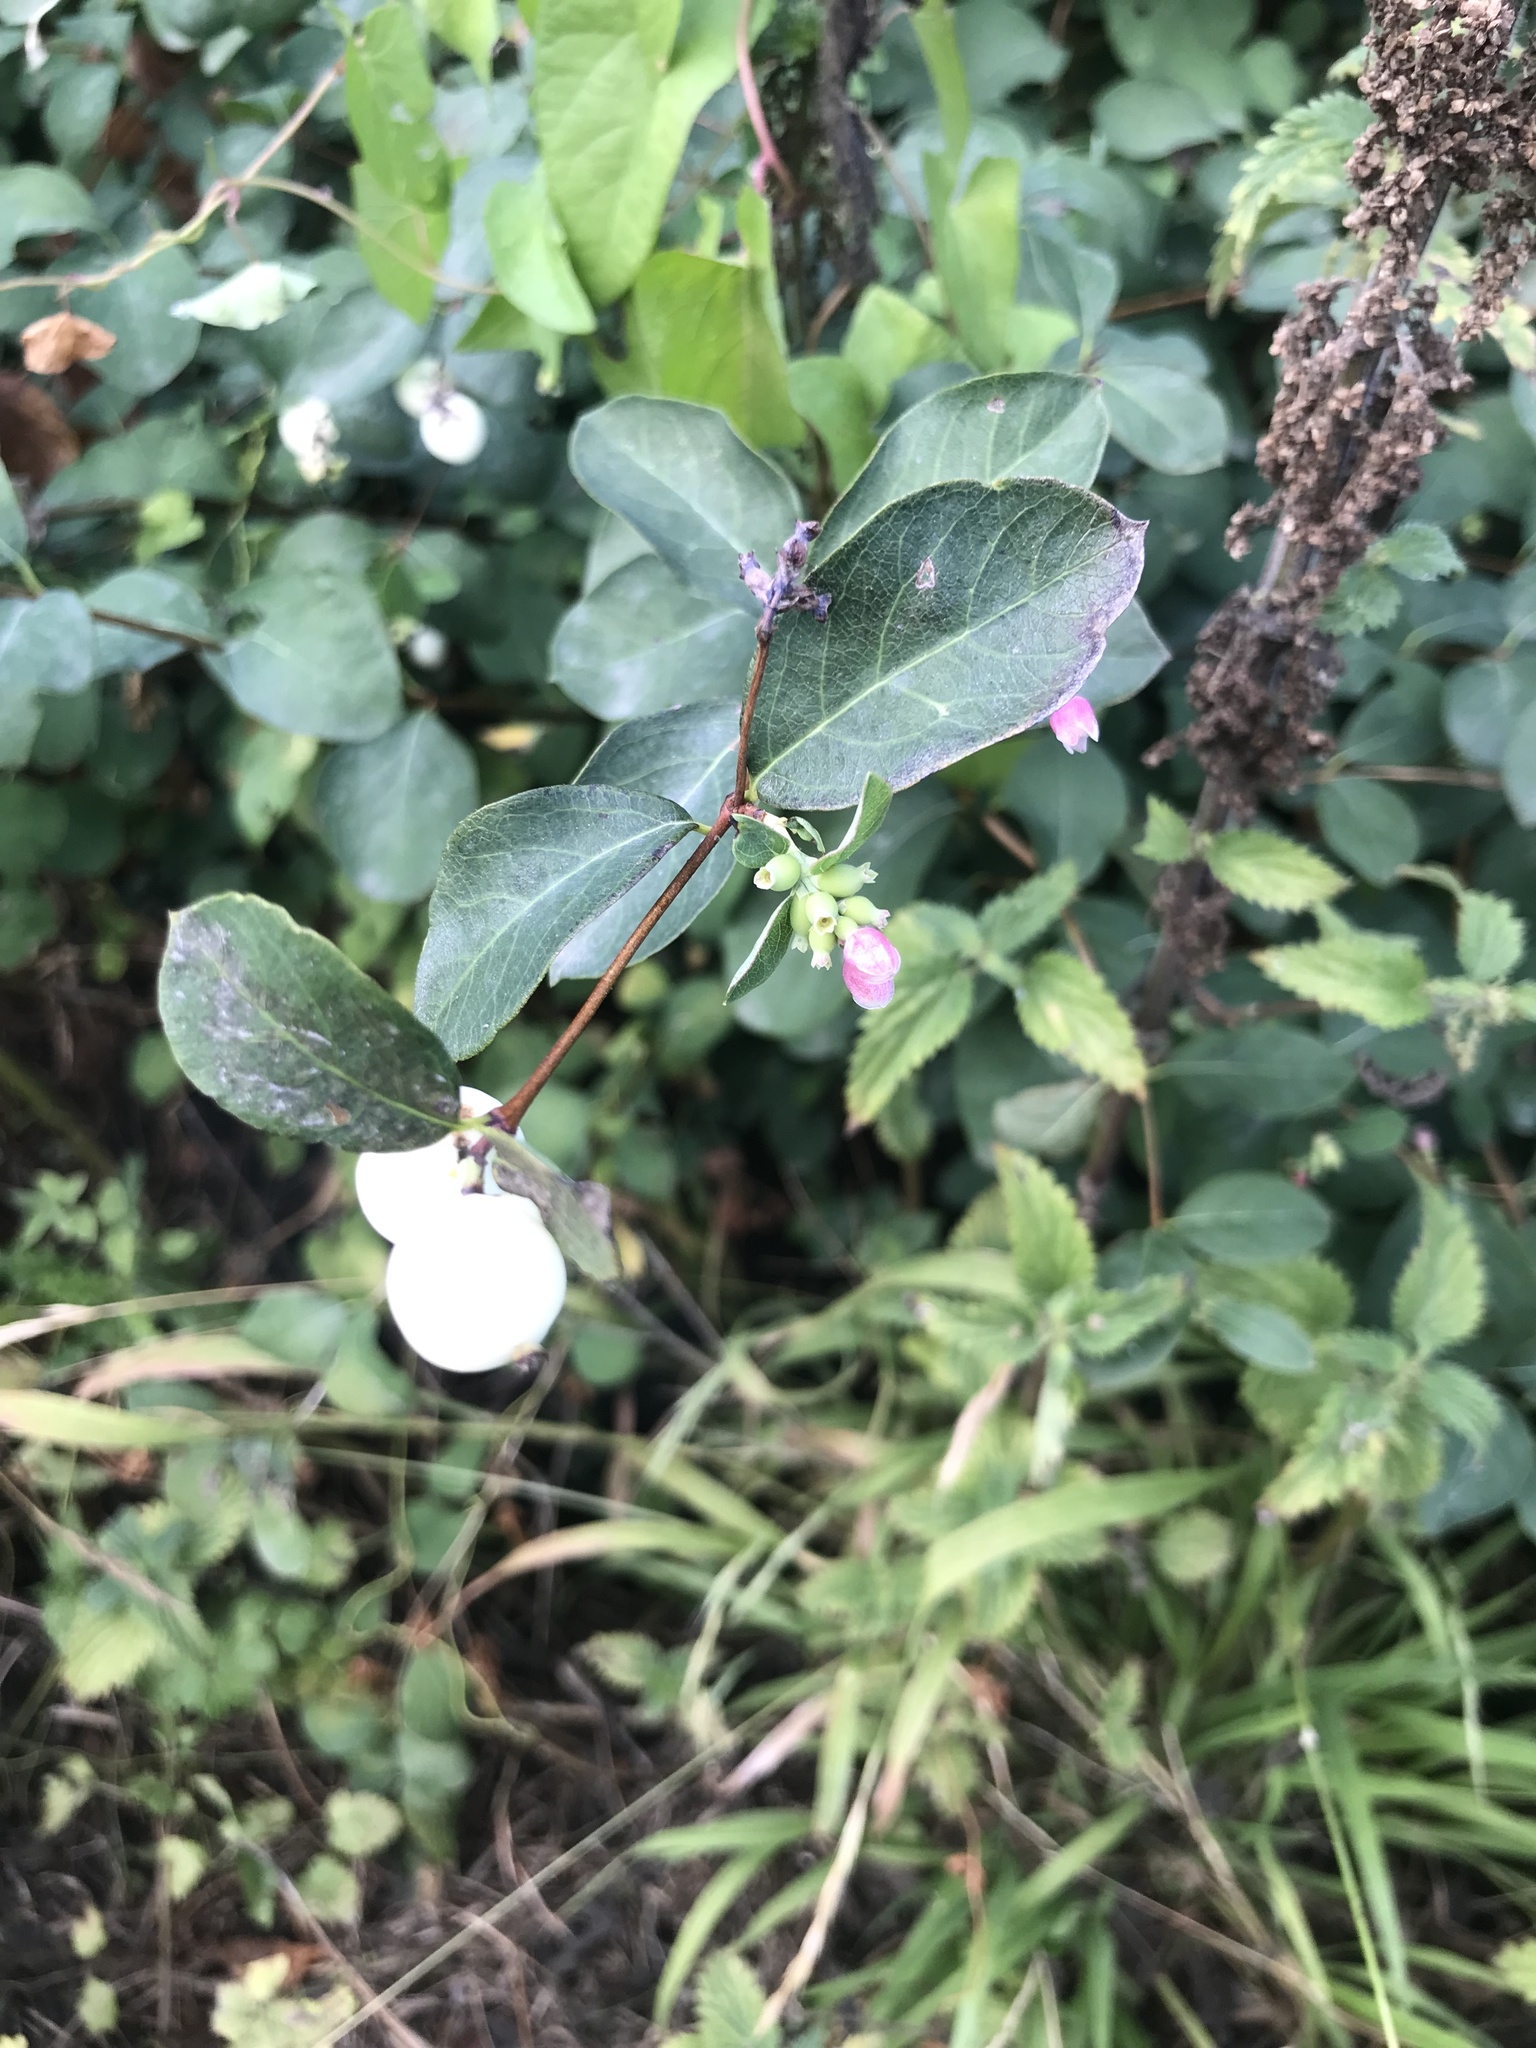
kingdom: Plantae
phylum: Tracheophyta
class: Magnoliopsida
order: Dipsacales
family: Caprifoliaceae
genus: Symphoricarpos
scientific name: Symphoricarpos albus
